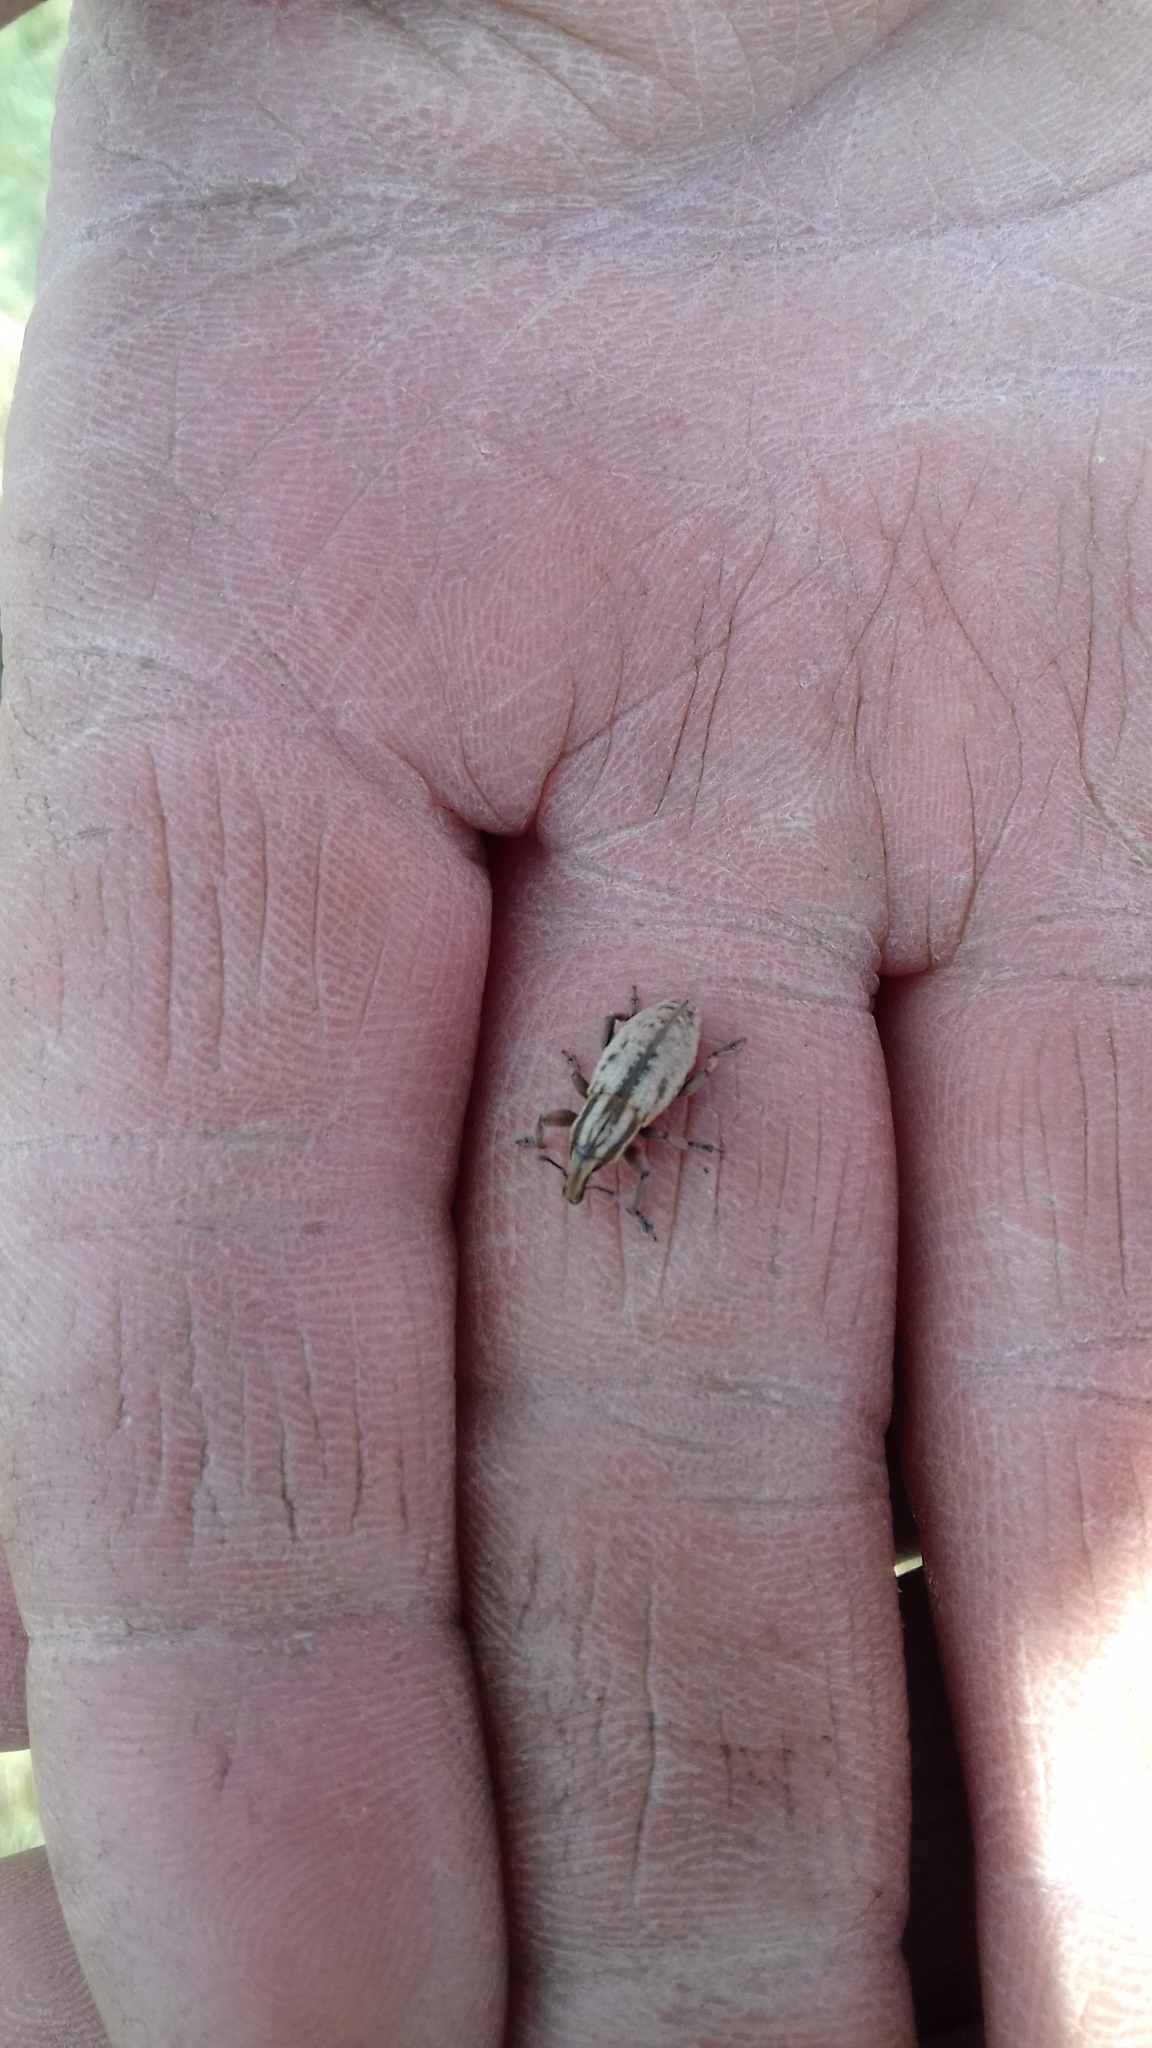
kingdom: Animalia
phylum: Arthropoda
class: Insecta
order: Coleoptera
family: Curculionidae
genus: Pseudocleonus
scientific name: Pseudocleonus cinereus
